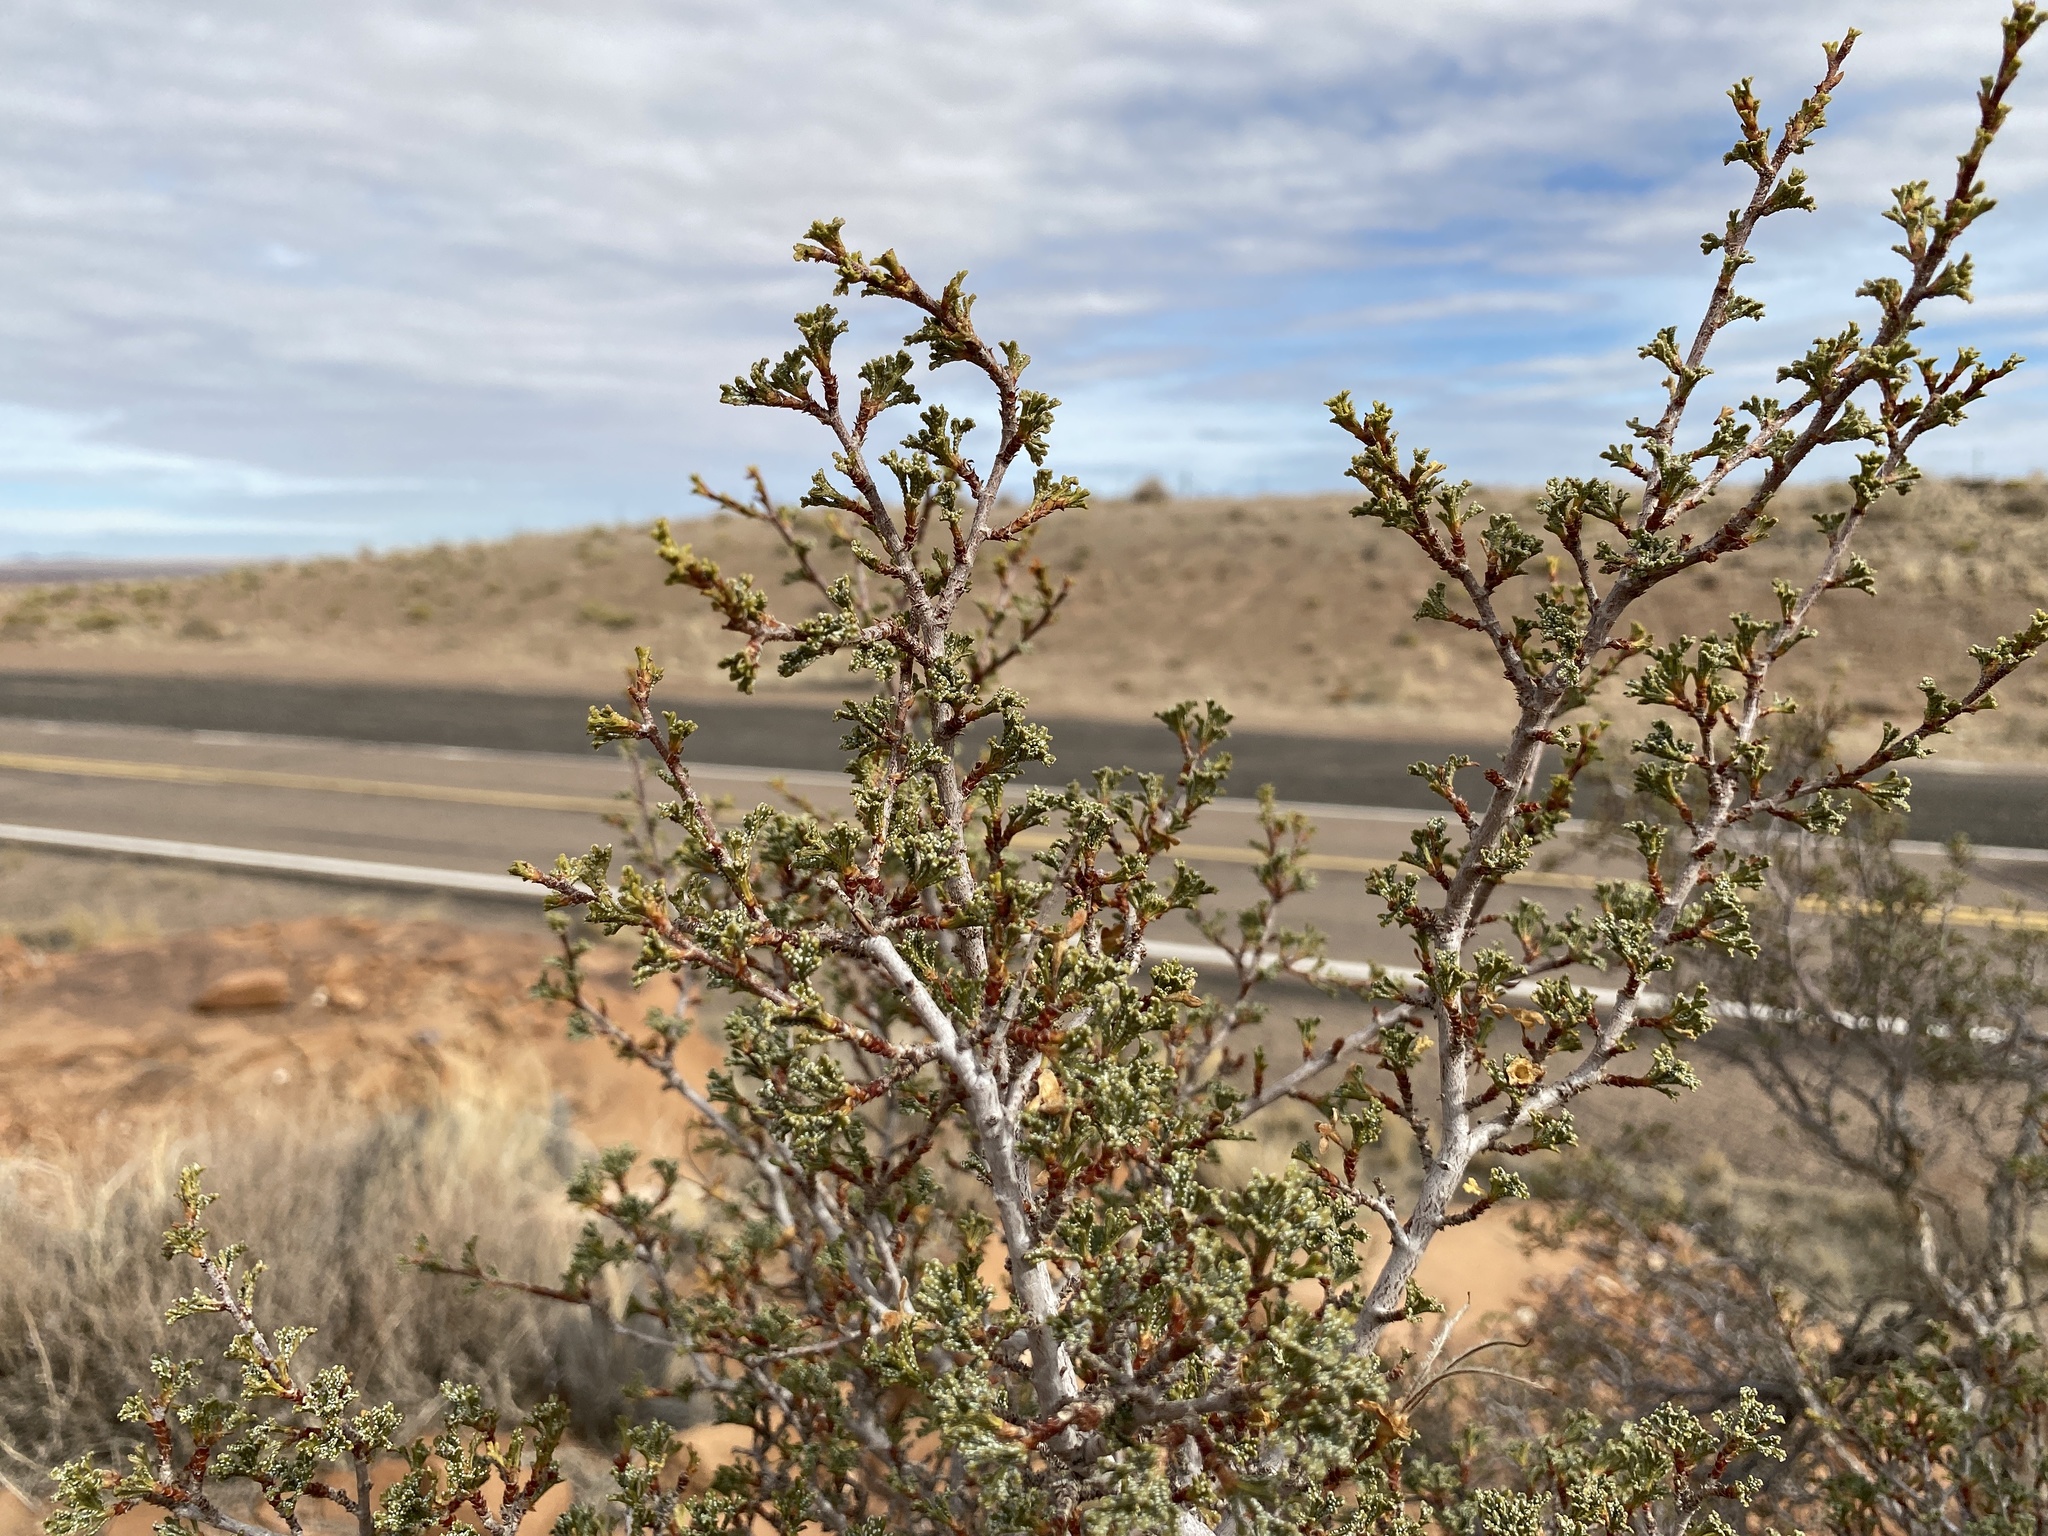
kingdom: Plantae
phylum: Tracheophyta
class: Magnoliopsida
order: Rosales
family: Rosaceae
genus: Purshia
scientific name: Purshia stansburiana
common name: Stansbury's cliffrose
